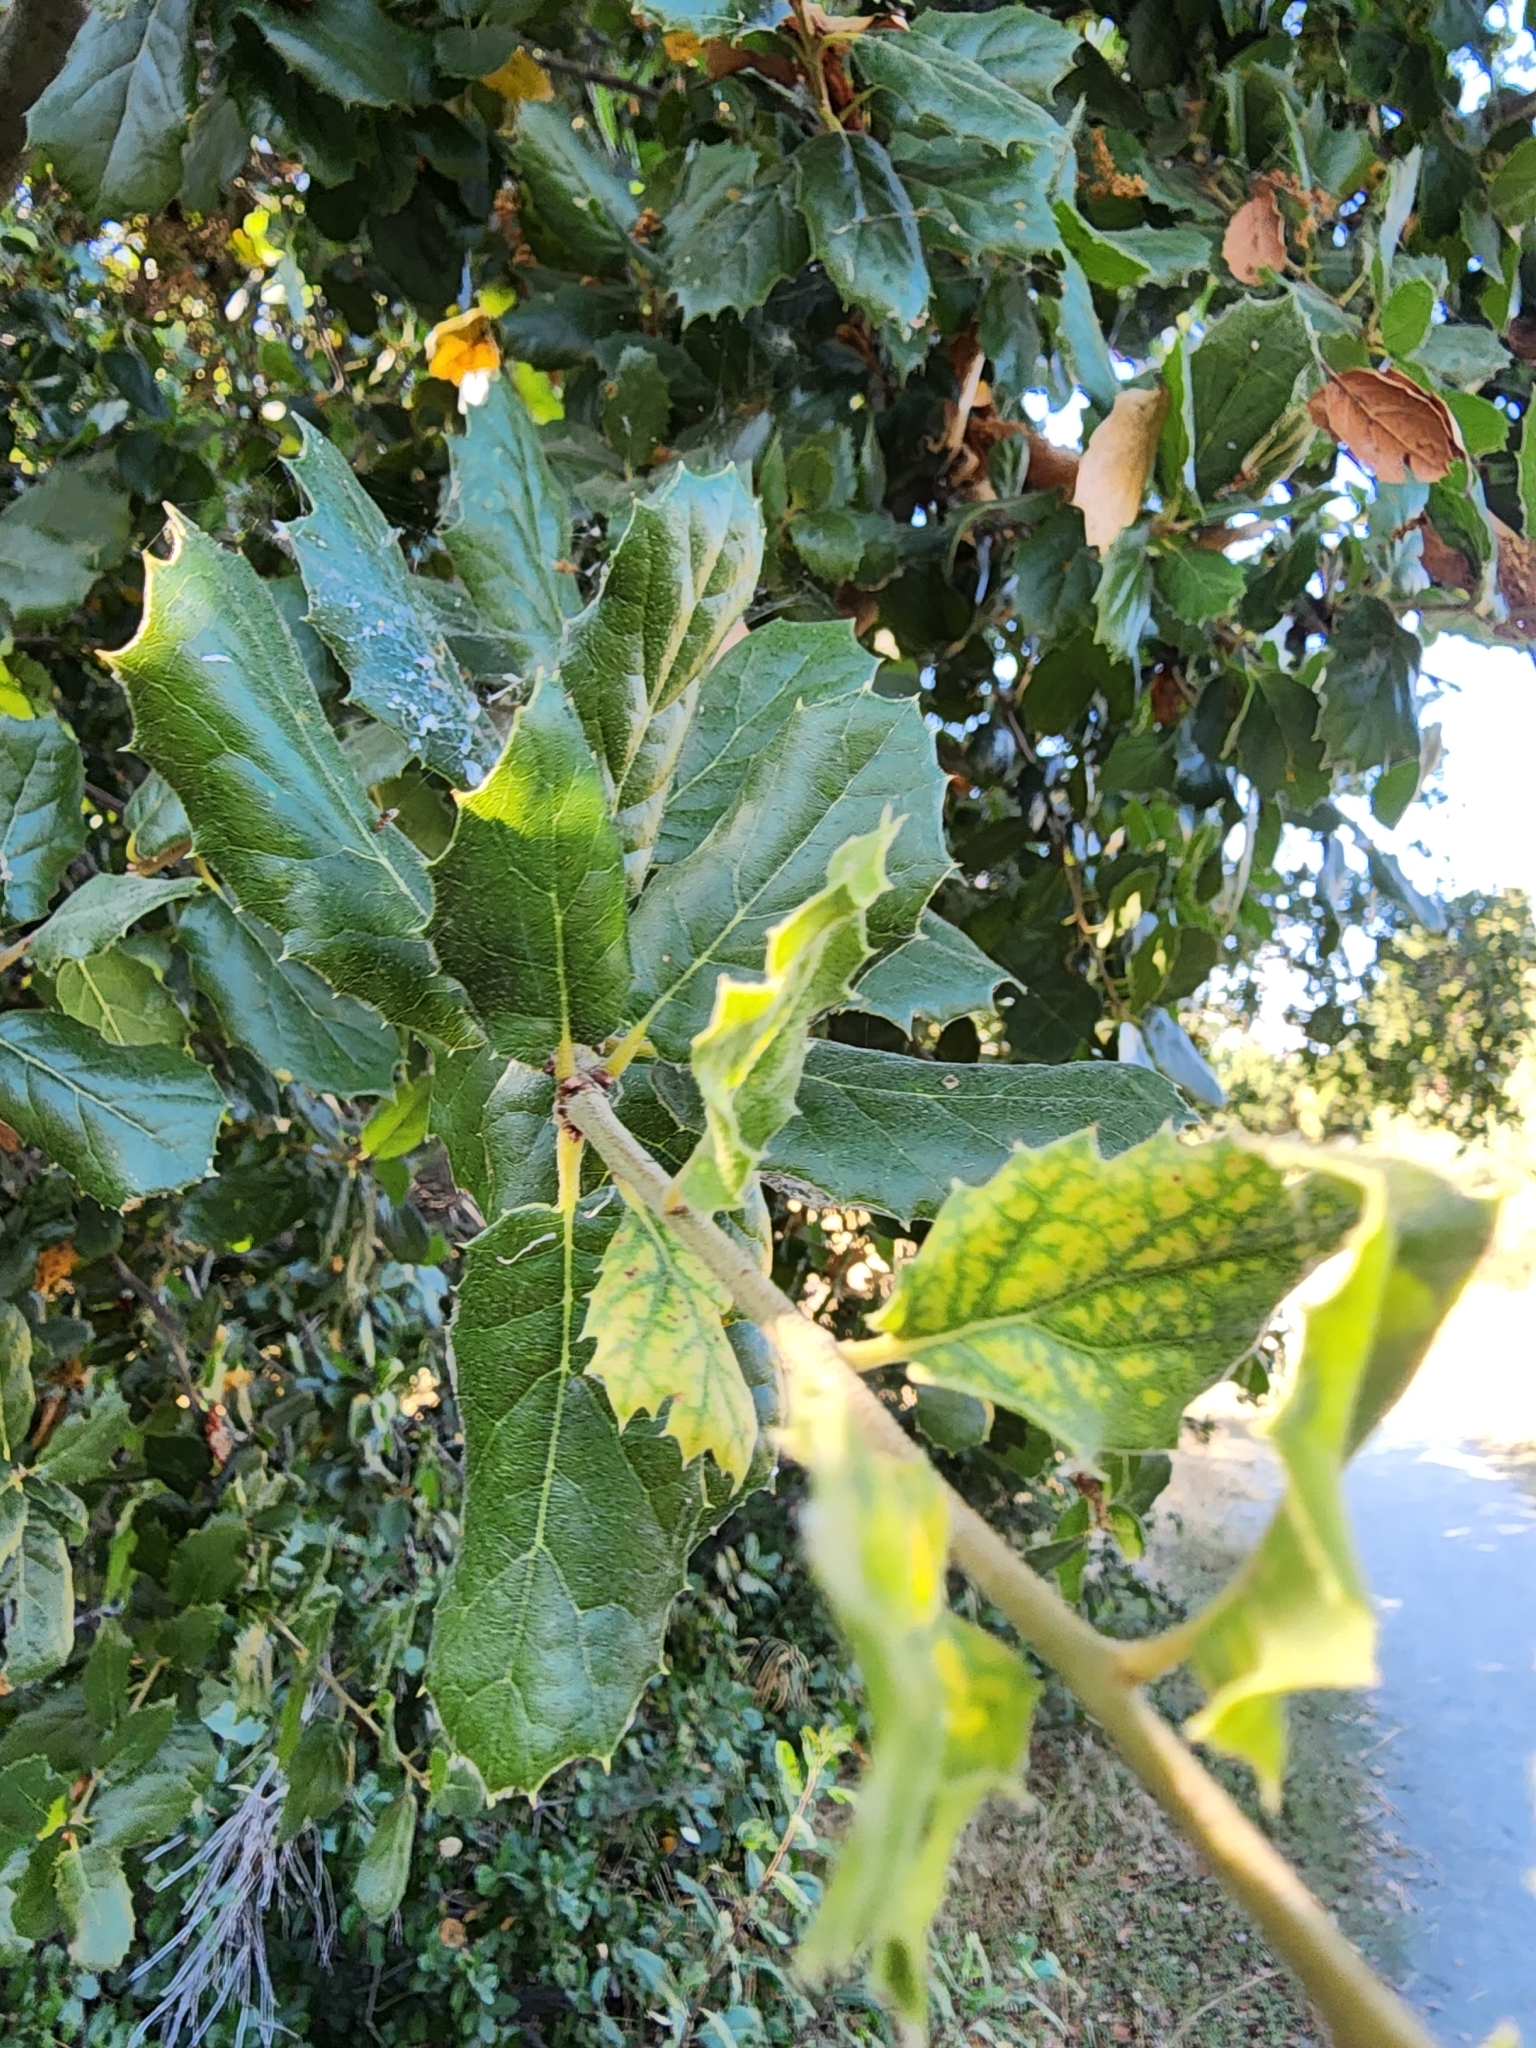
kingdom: Plantae
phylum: Tracheophyta
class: Magnoliopsida
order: Fagales
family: Fagaceae
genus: Quercus
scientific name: Quercus agrifolia
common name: California live oak
